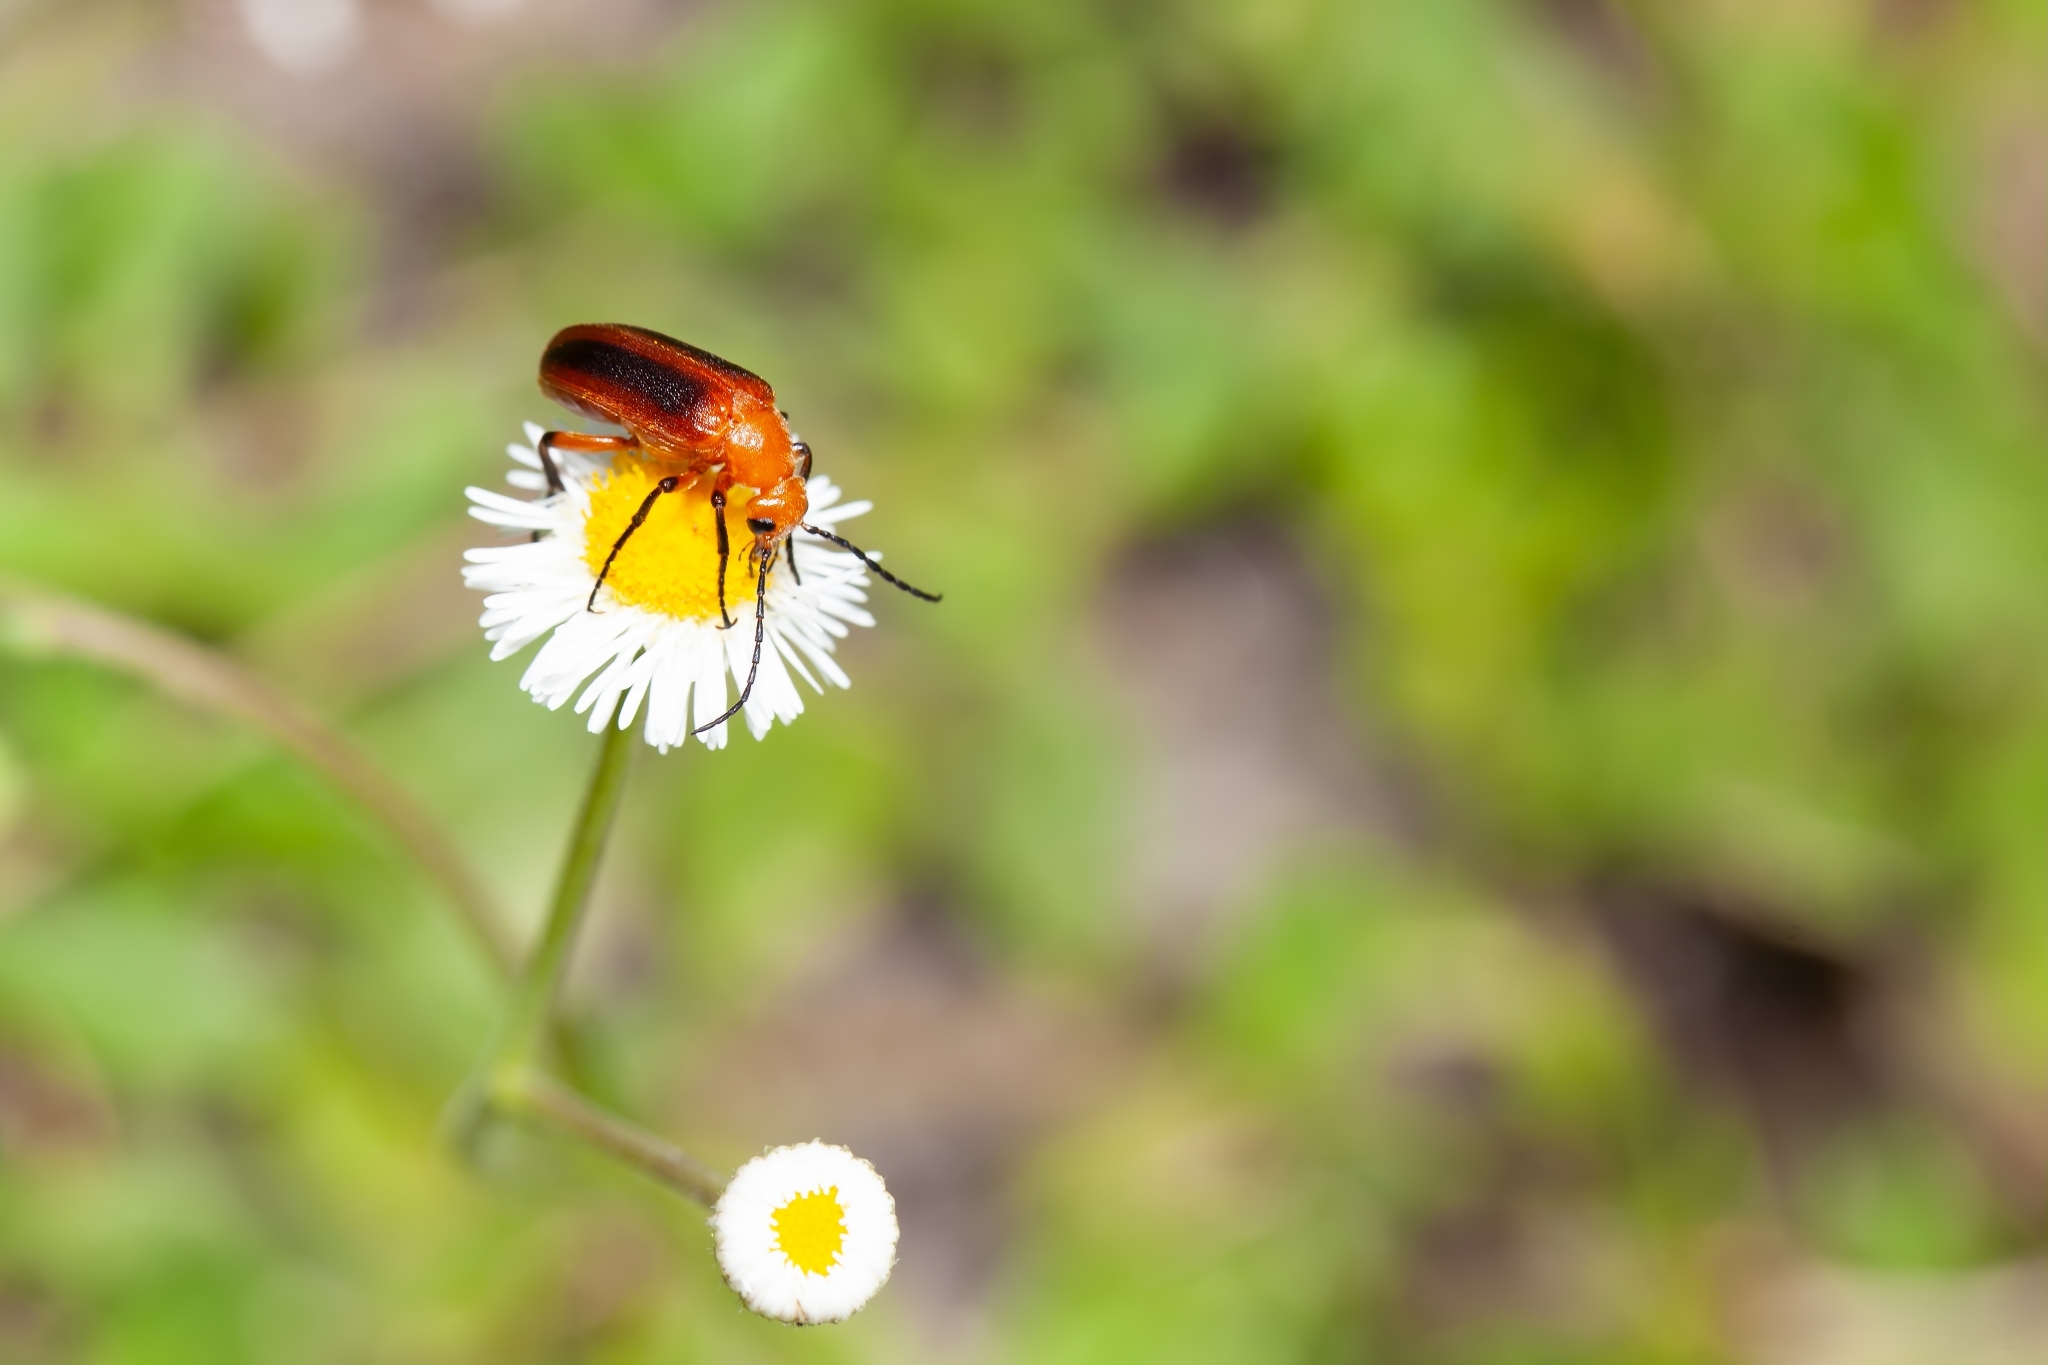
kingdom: Animalia
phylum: Arthropoda
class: Insecta
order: Coleoptera
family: Meloidae
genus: Zonitis
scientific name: Zonitis vittigera
